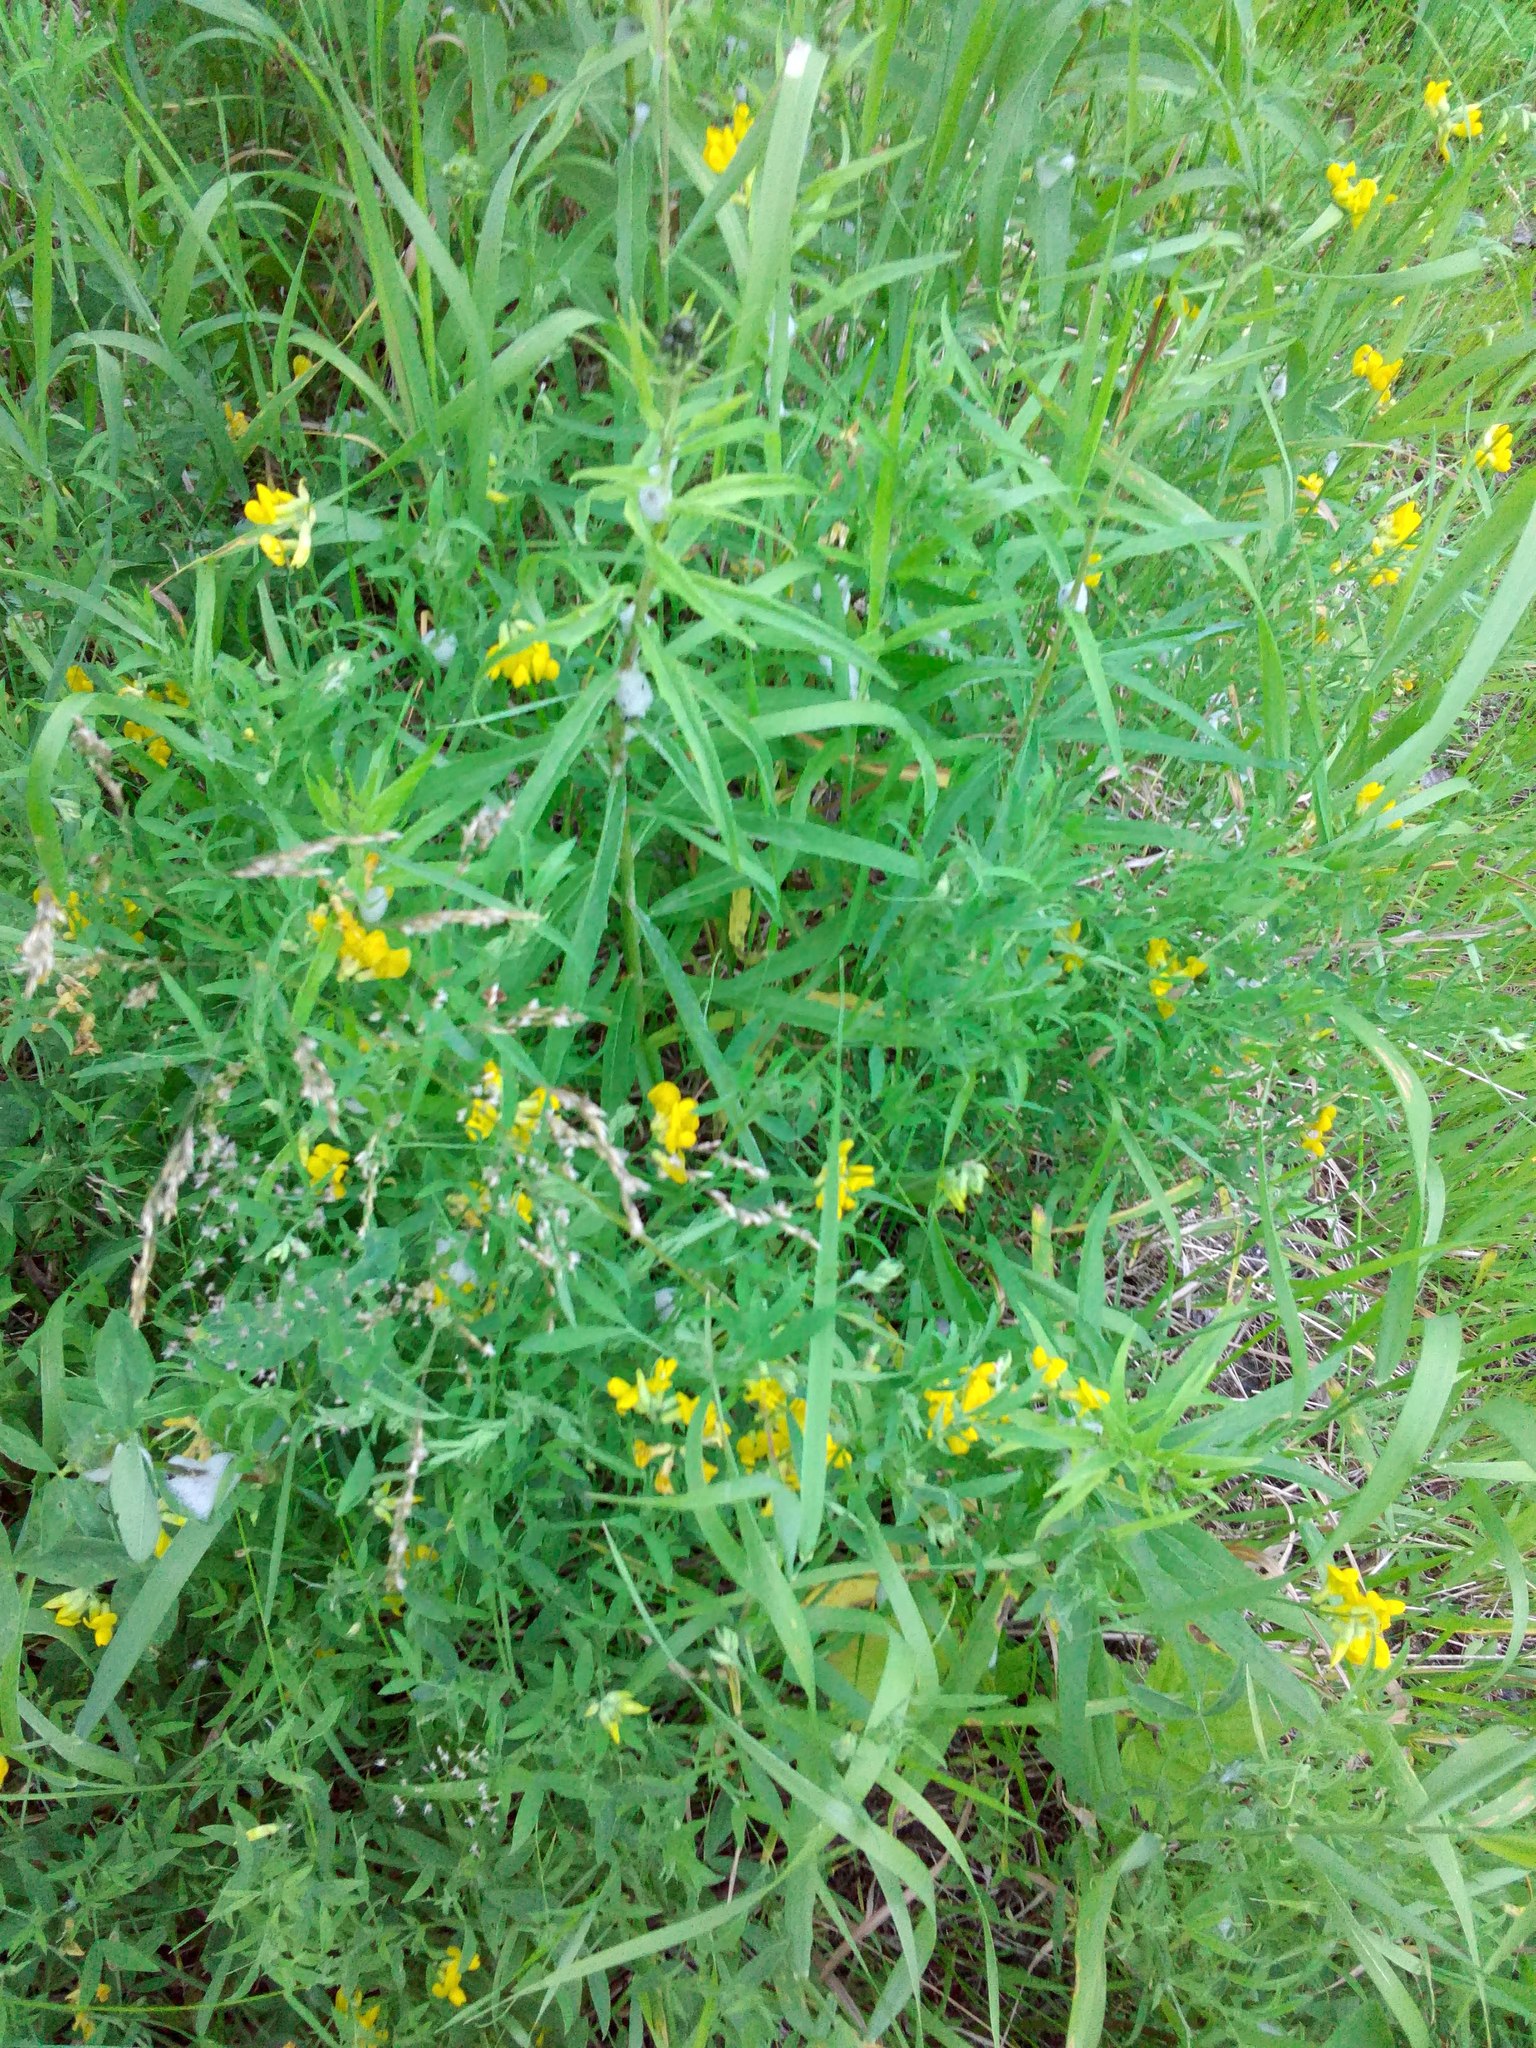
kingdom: Plantae
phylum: Tracheophyta
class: Magnoliopsida
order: Fabales
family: Fabaceae
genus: Lathyrus
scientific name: Lathyrus pratensis
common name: Meadow vetchling
